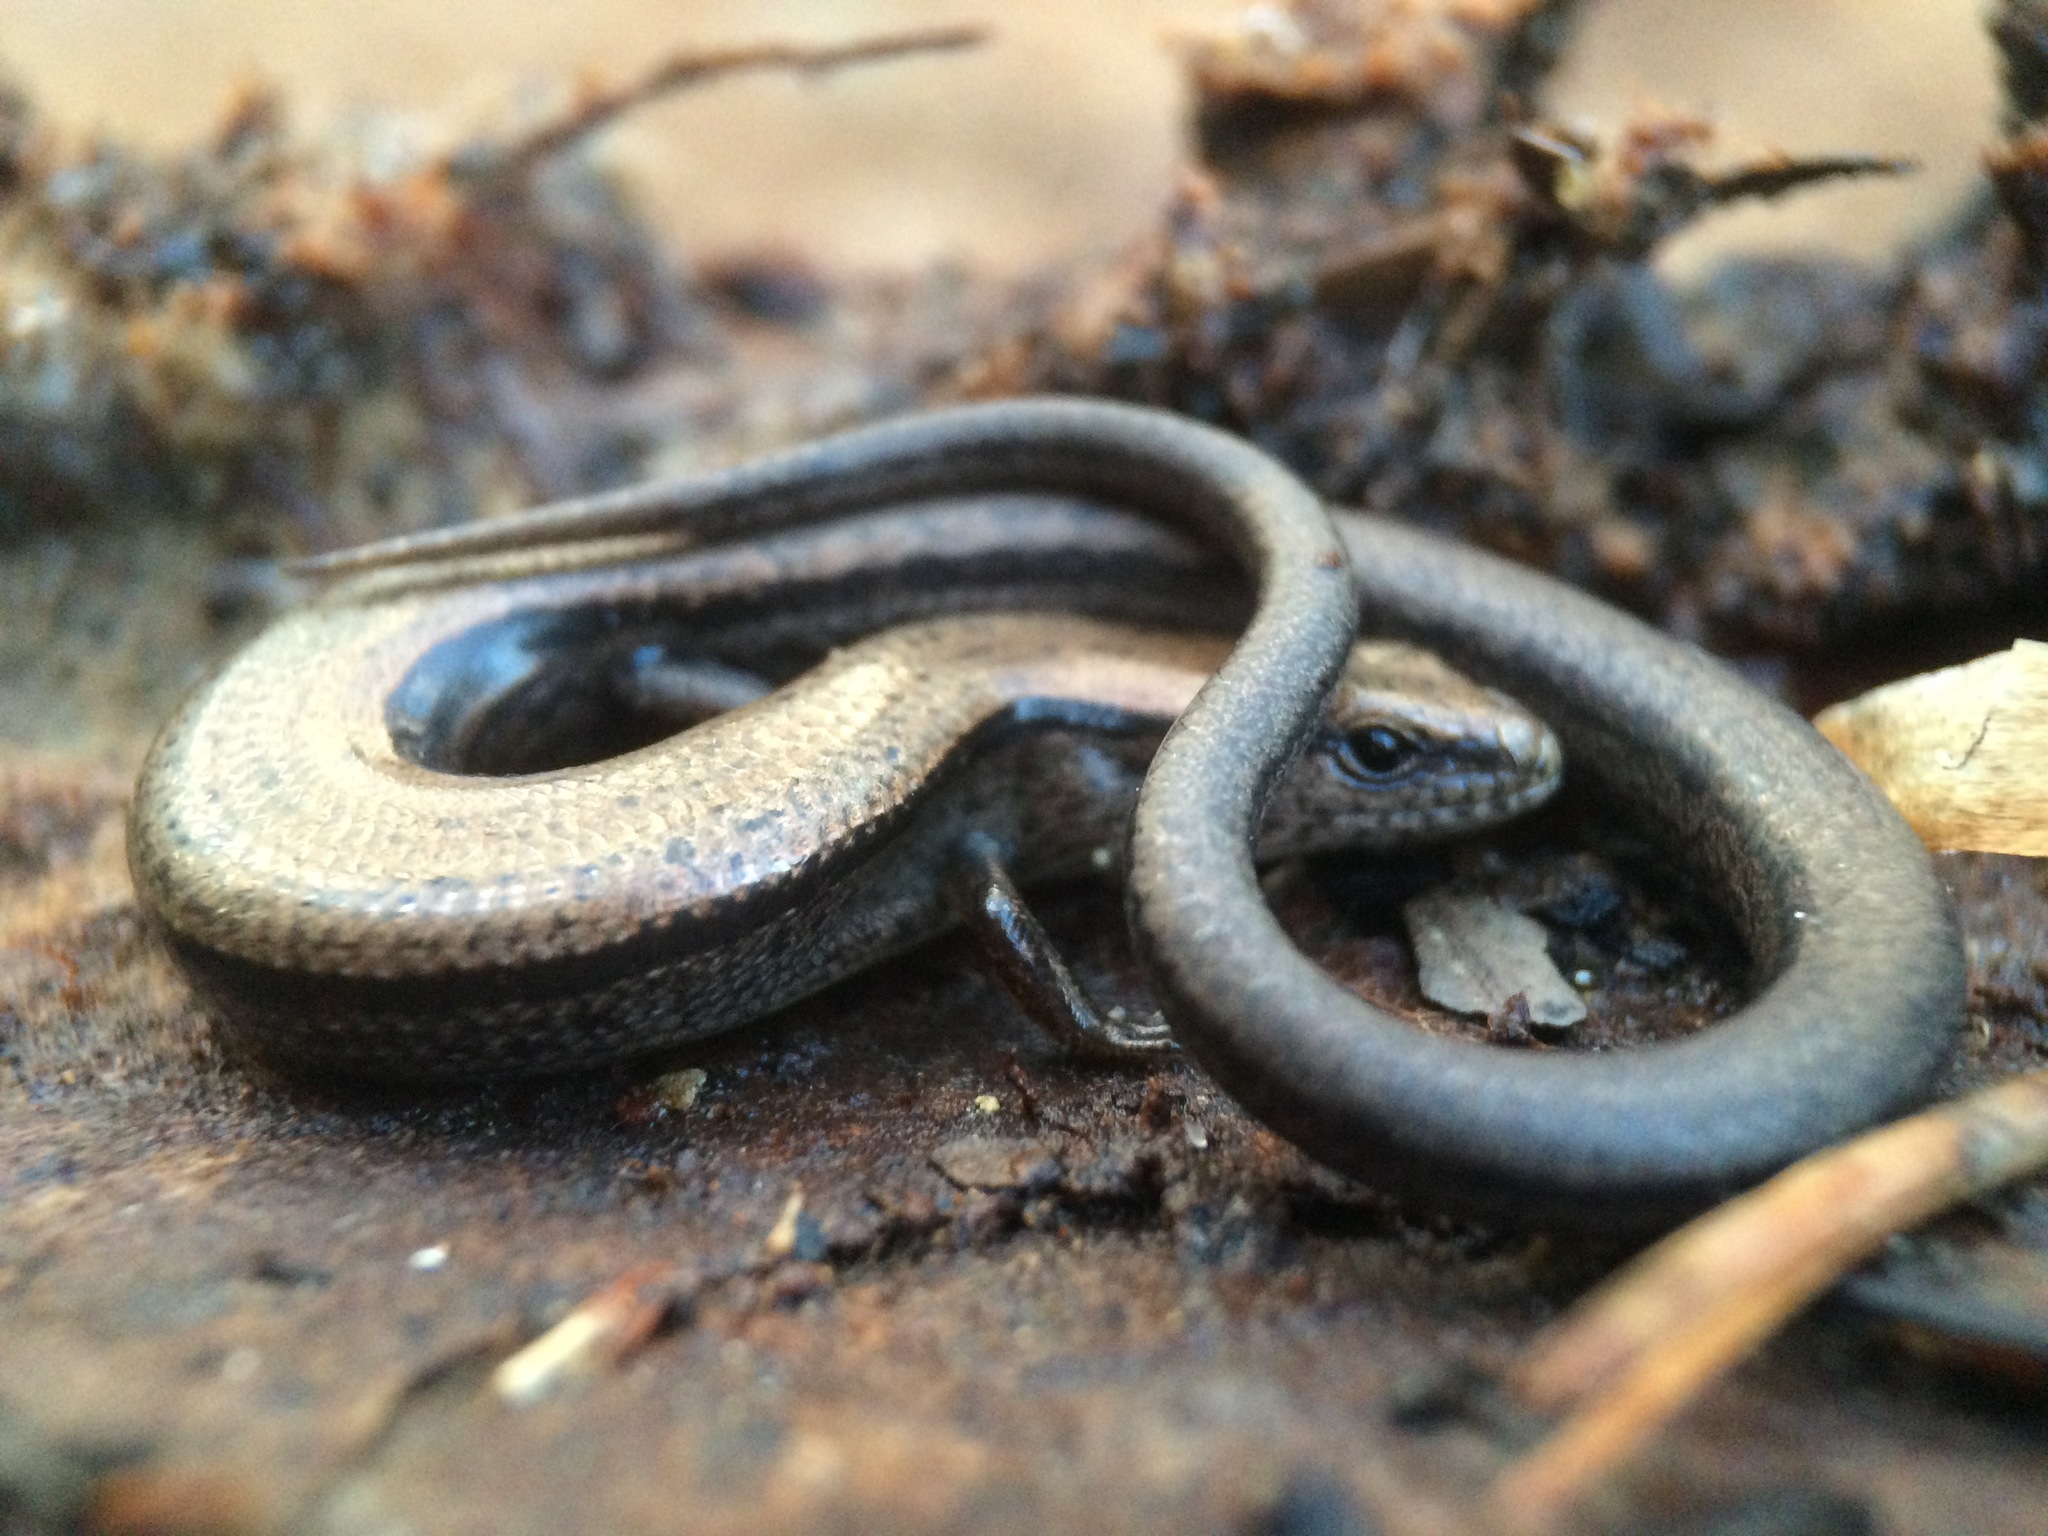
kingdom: Animalia
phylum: Chordata
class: Squamata
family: Scincidae
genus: Scincella
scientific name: Scincella lateralis
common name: Ground skink
